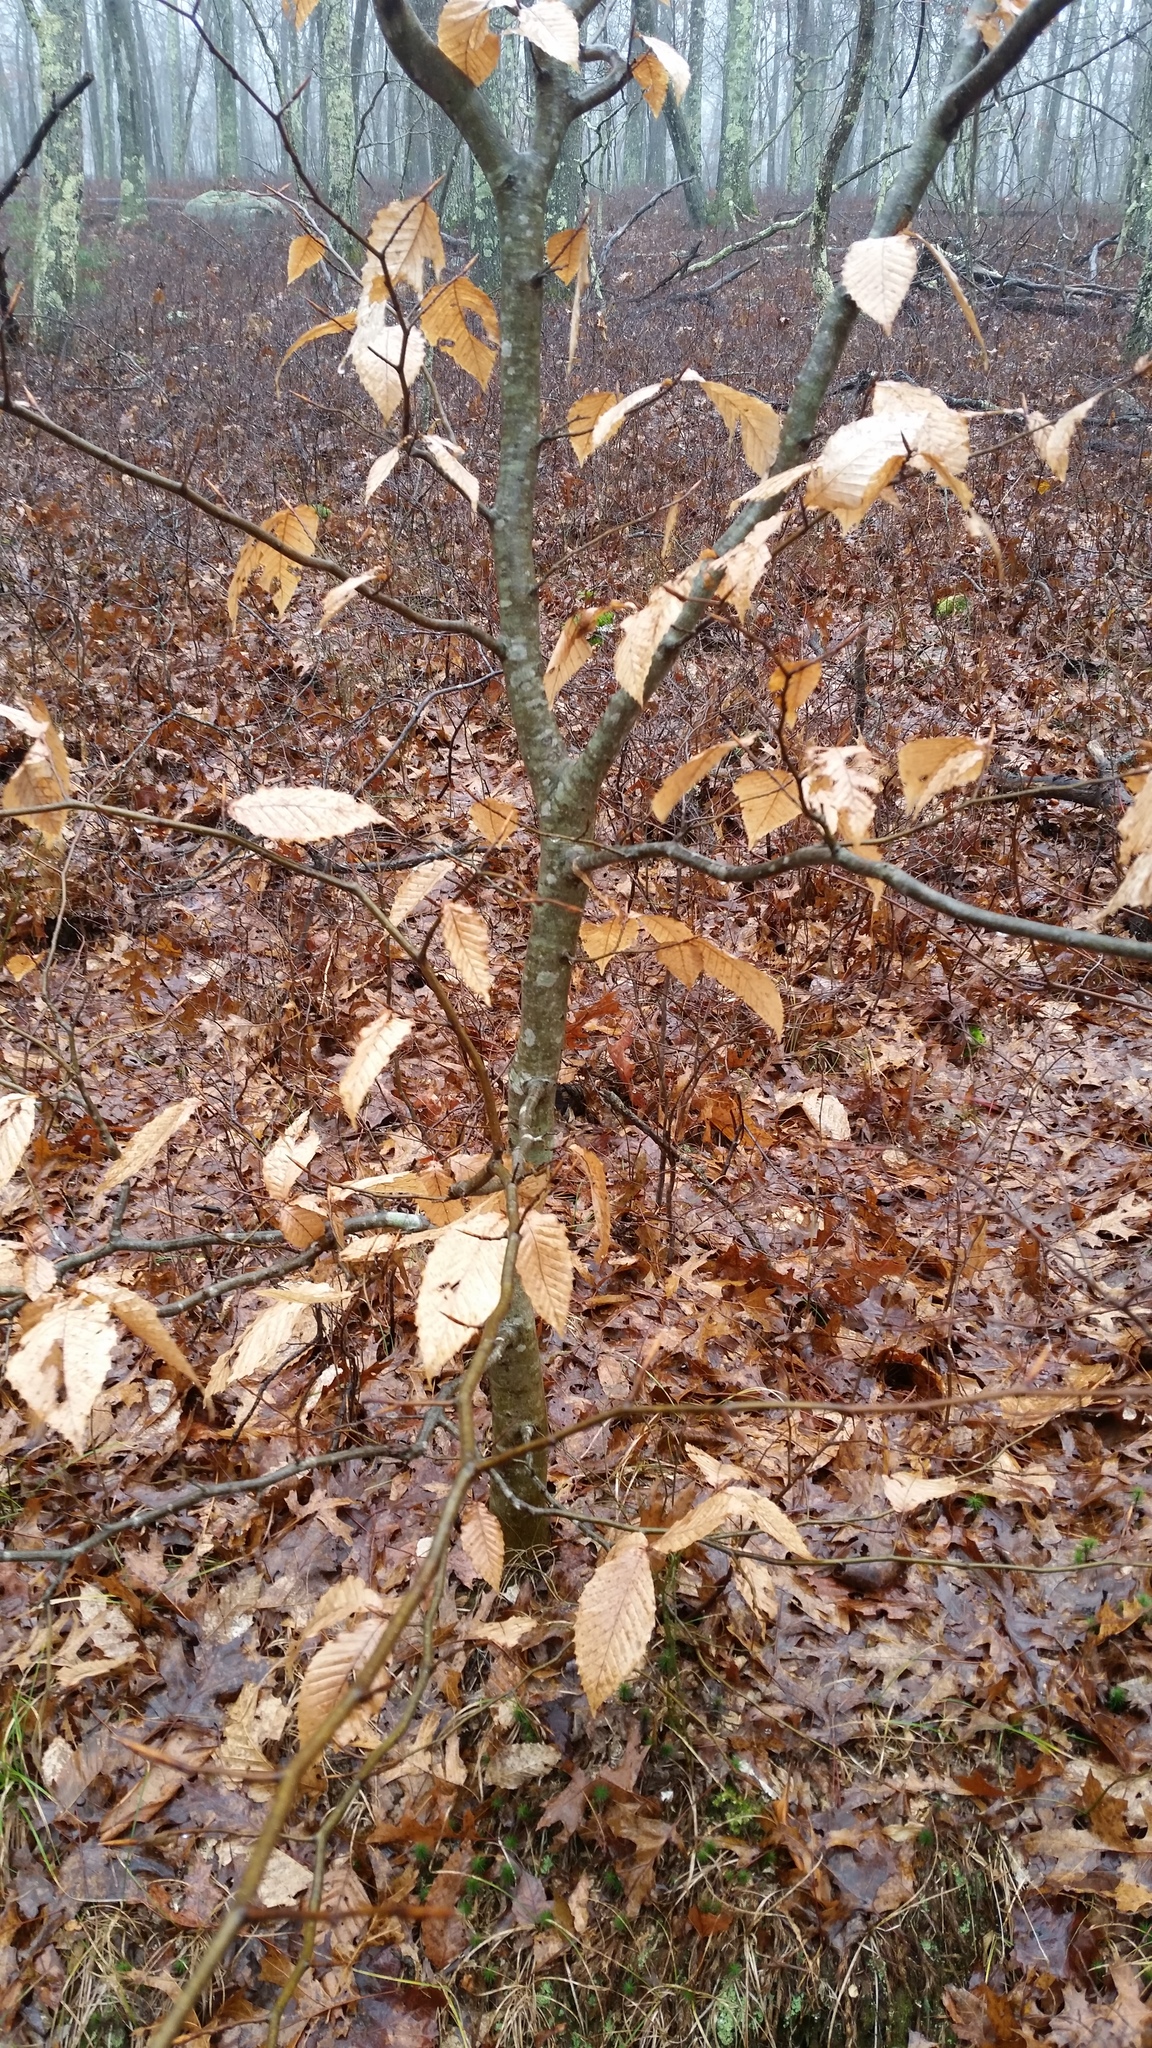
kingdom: Plantae
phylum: Tracheophyta
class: Magnoliopsida
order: Fagales
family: Fagaceae
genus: Fagus
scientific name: Fagus grandifolia
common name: American beech
